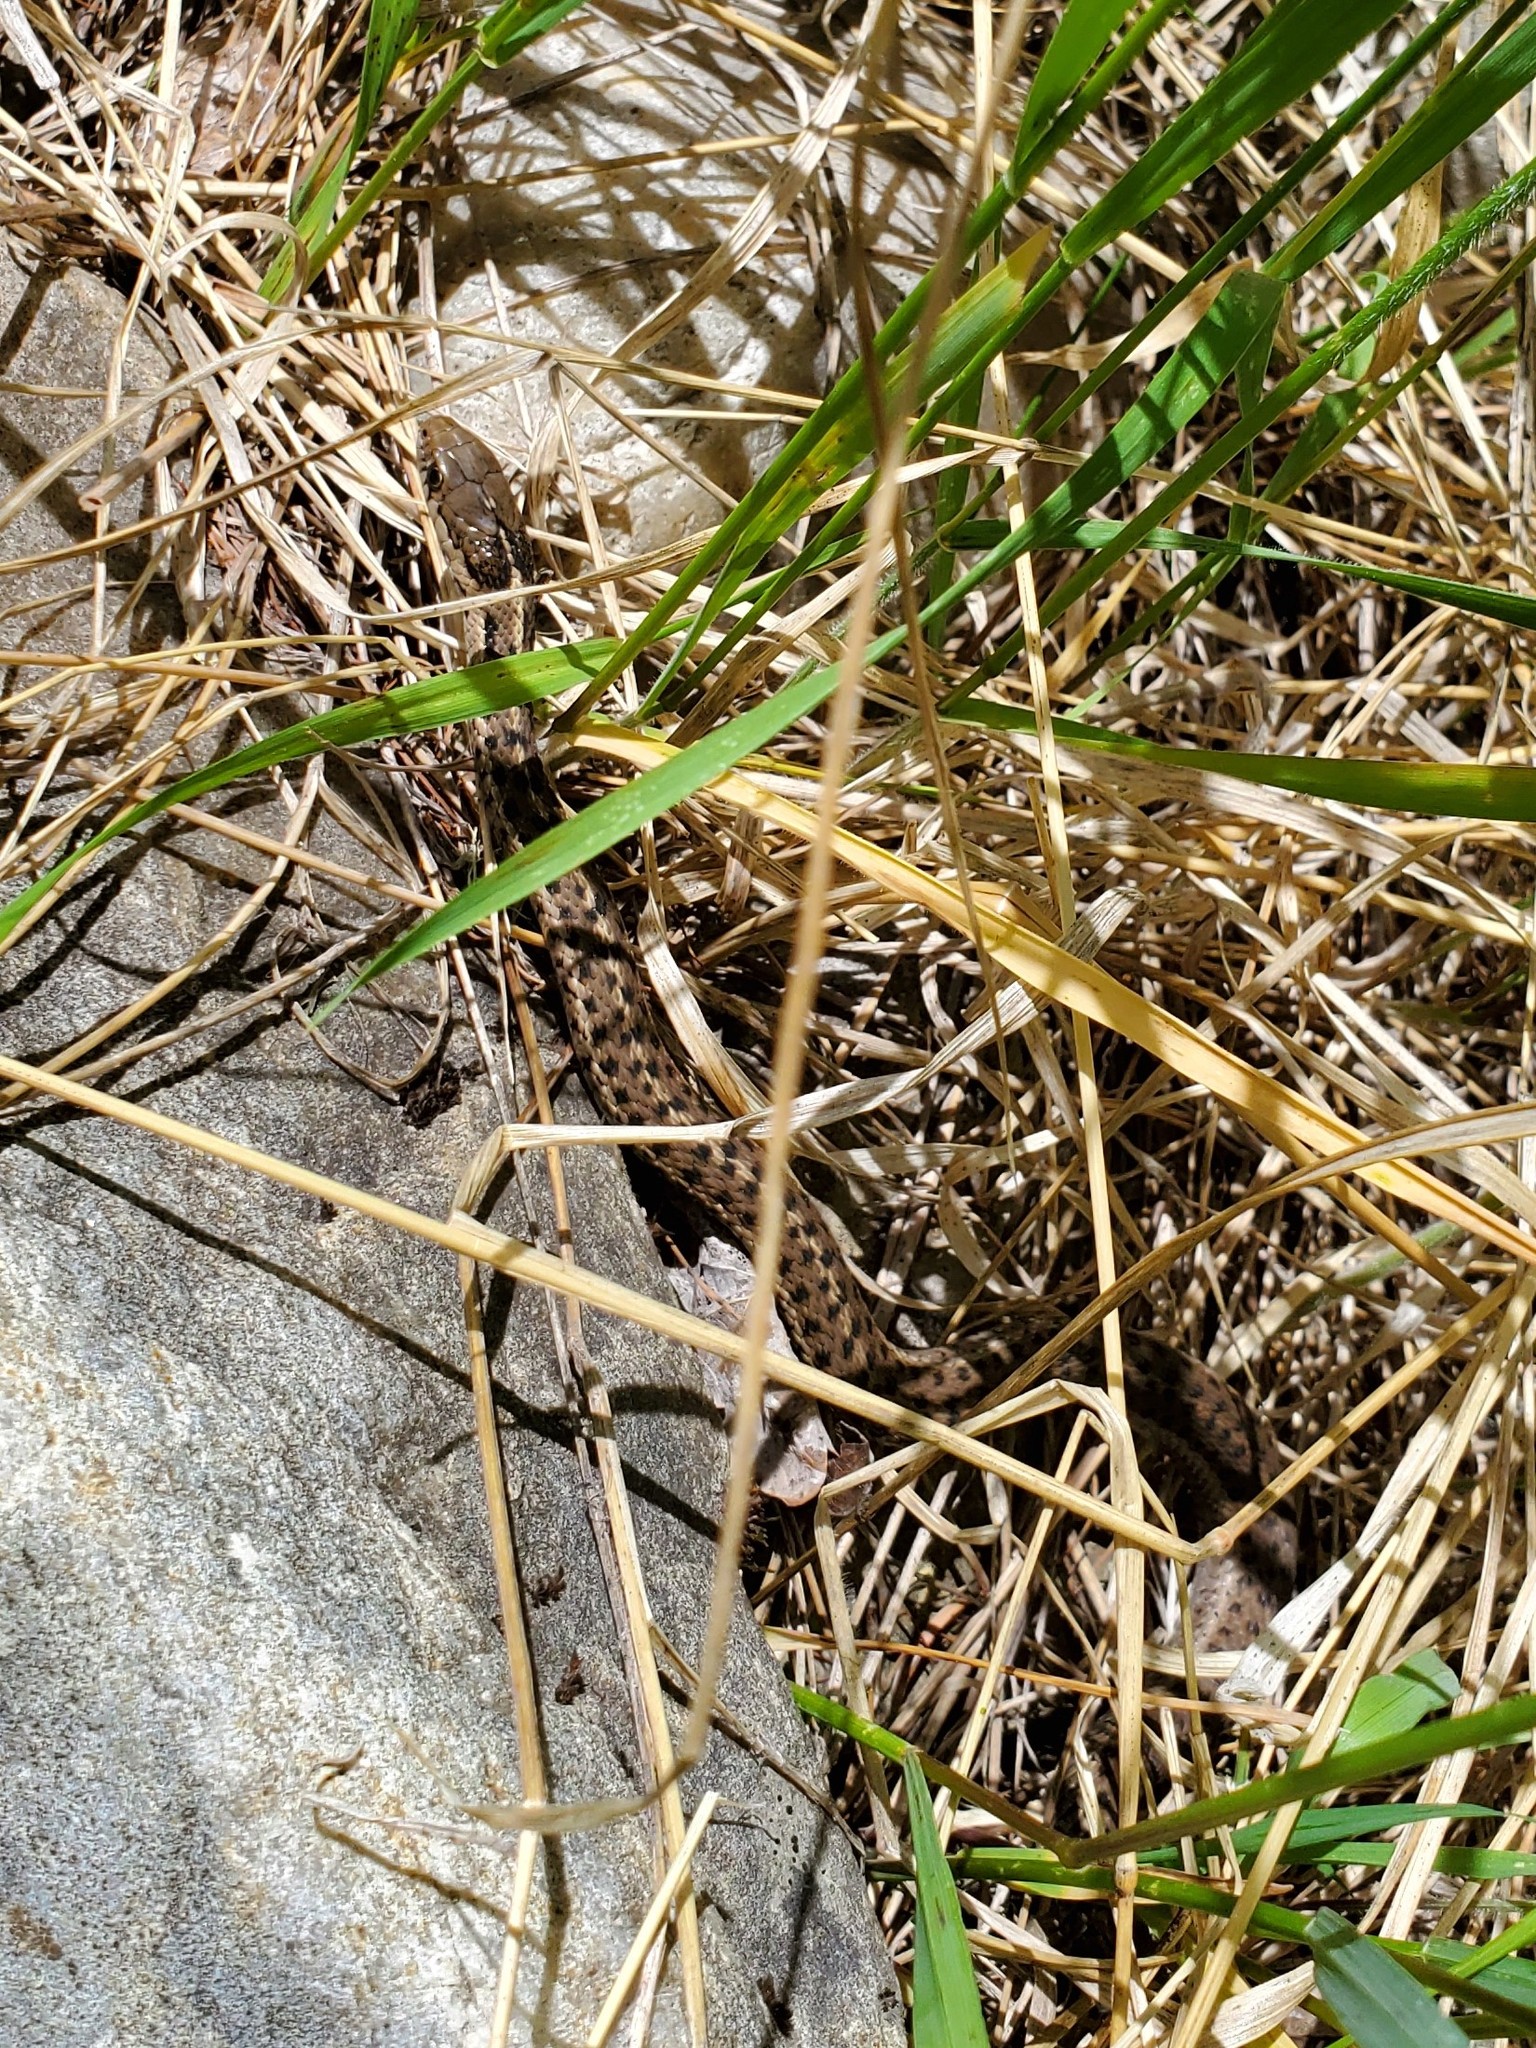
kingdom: Animalia
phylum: Chordata
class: Squamata
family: Colubridae
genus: Thamnophis
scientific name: Thamnophis elegans
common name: Western terrestrial garter snake
